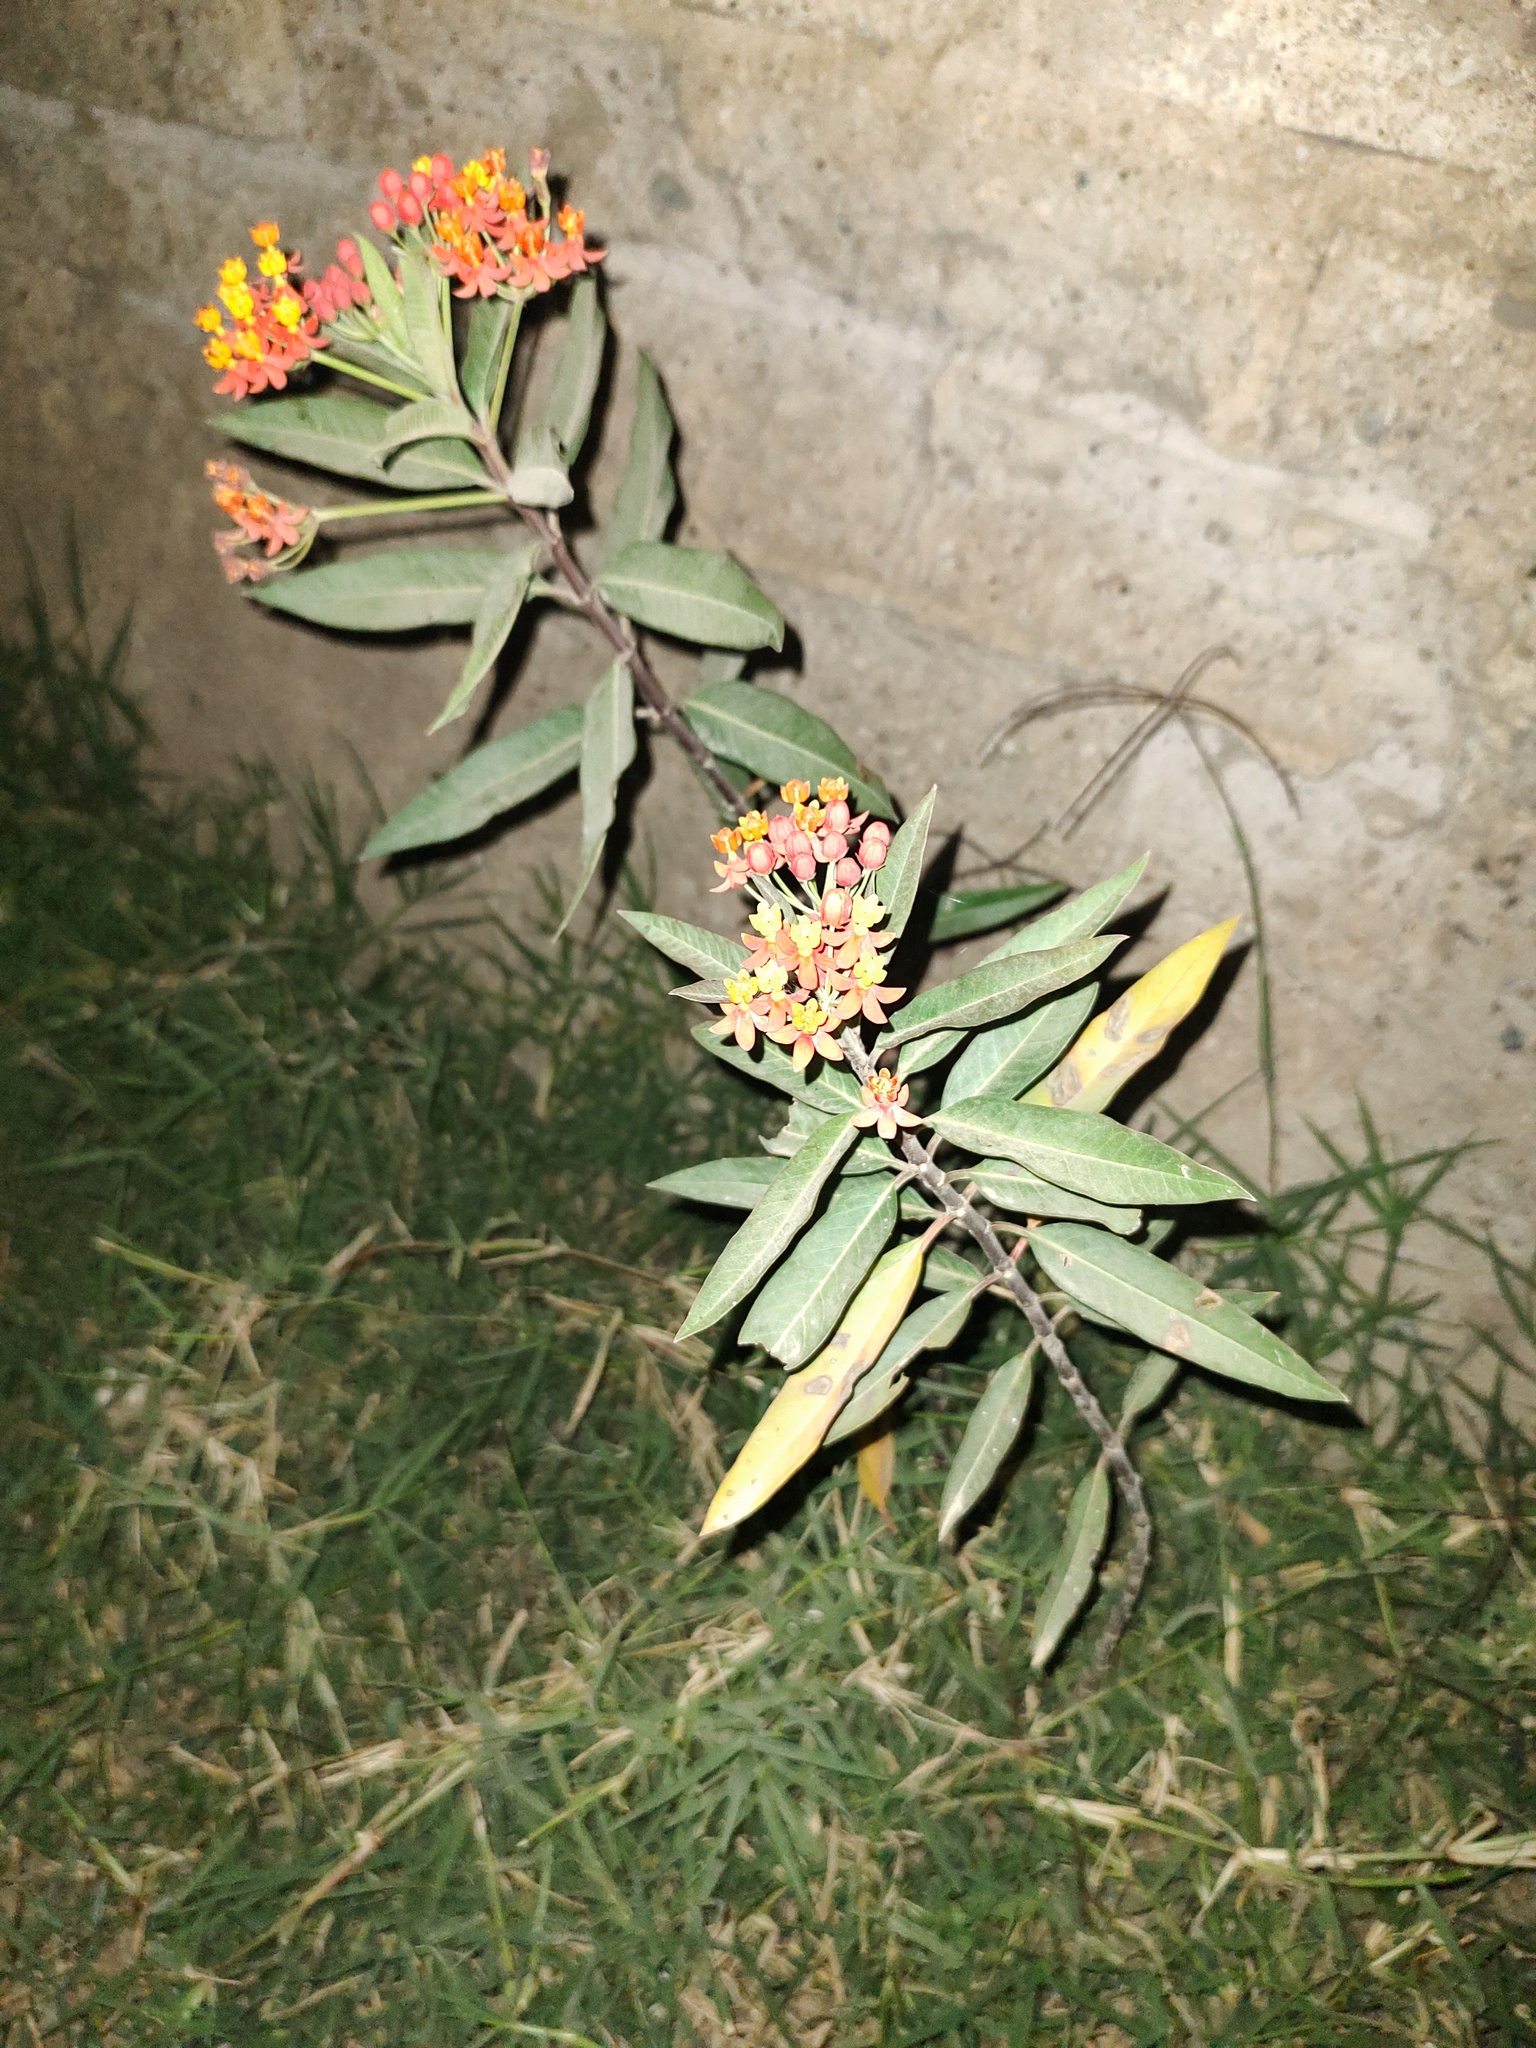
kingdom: Plantae
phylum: Tracheophyta
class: Magnoliopsida
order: Gentianales
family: Apocynaceae
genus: Asclepias
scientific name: Asclepias curassavica
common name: Bloodflower
